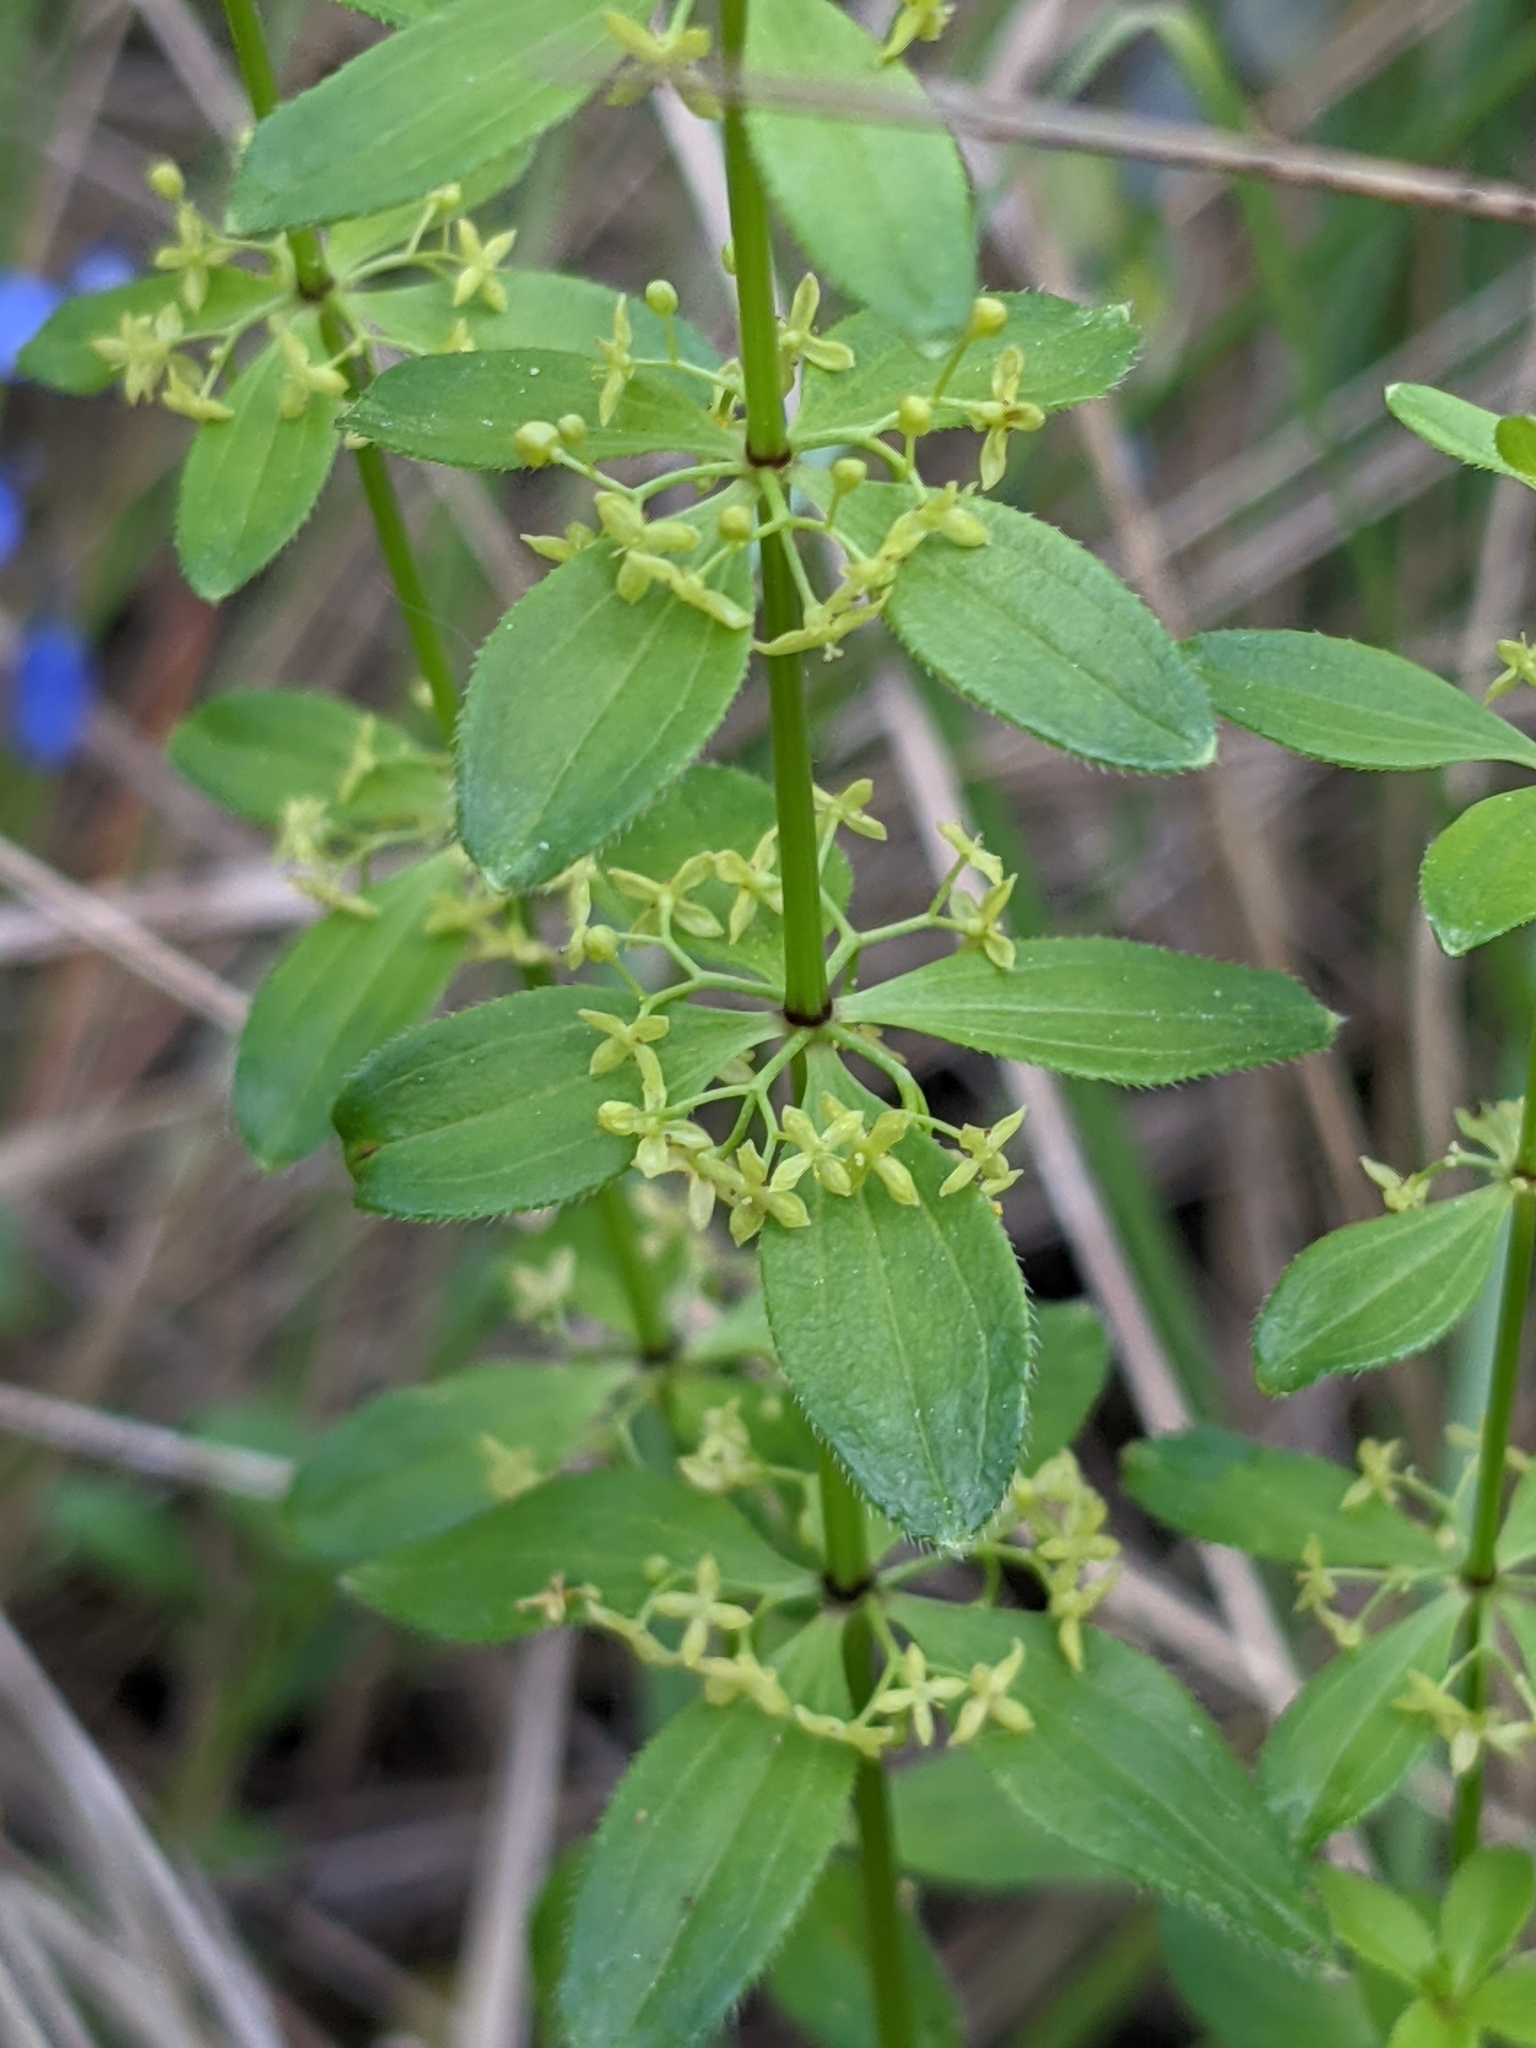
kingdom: Plantae
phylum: Tracheophyta
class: Magnoliopsida
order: Gentianales
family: Rubiaceae
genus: Cruciata
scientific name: Cruciata glabra
